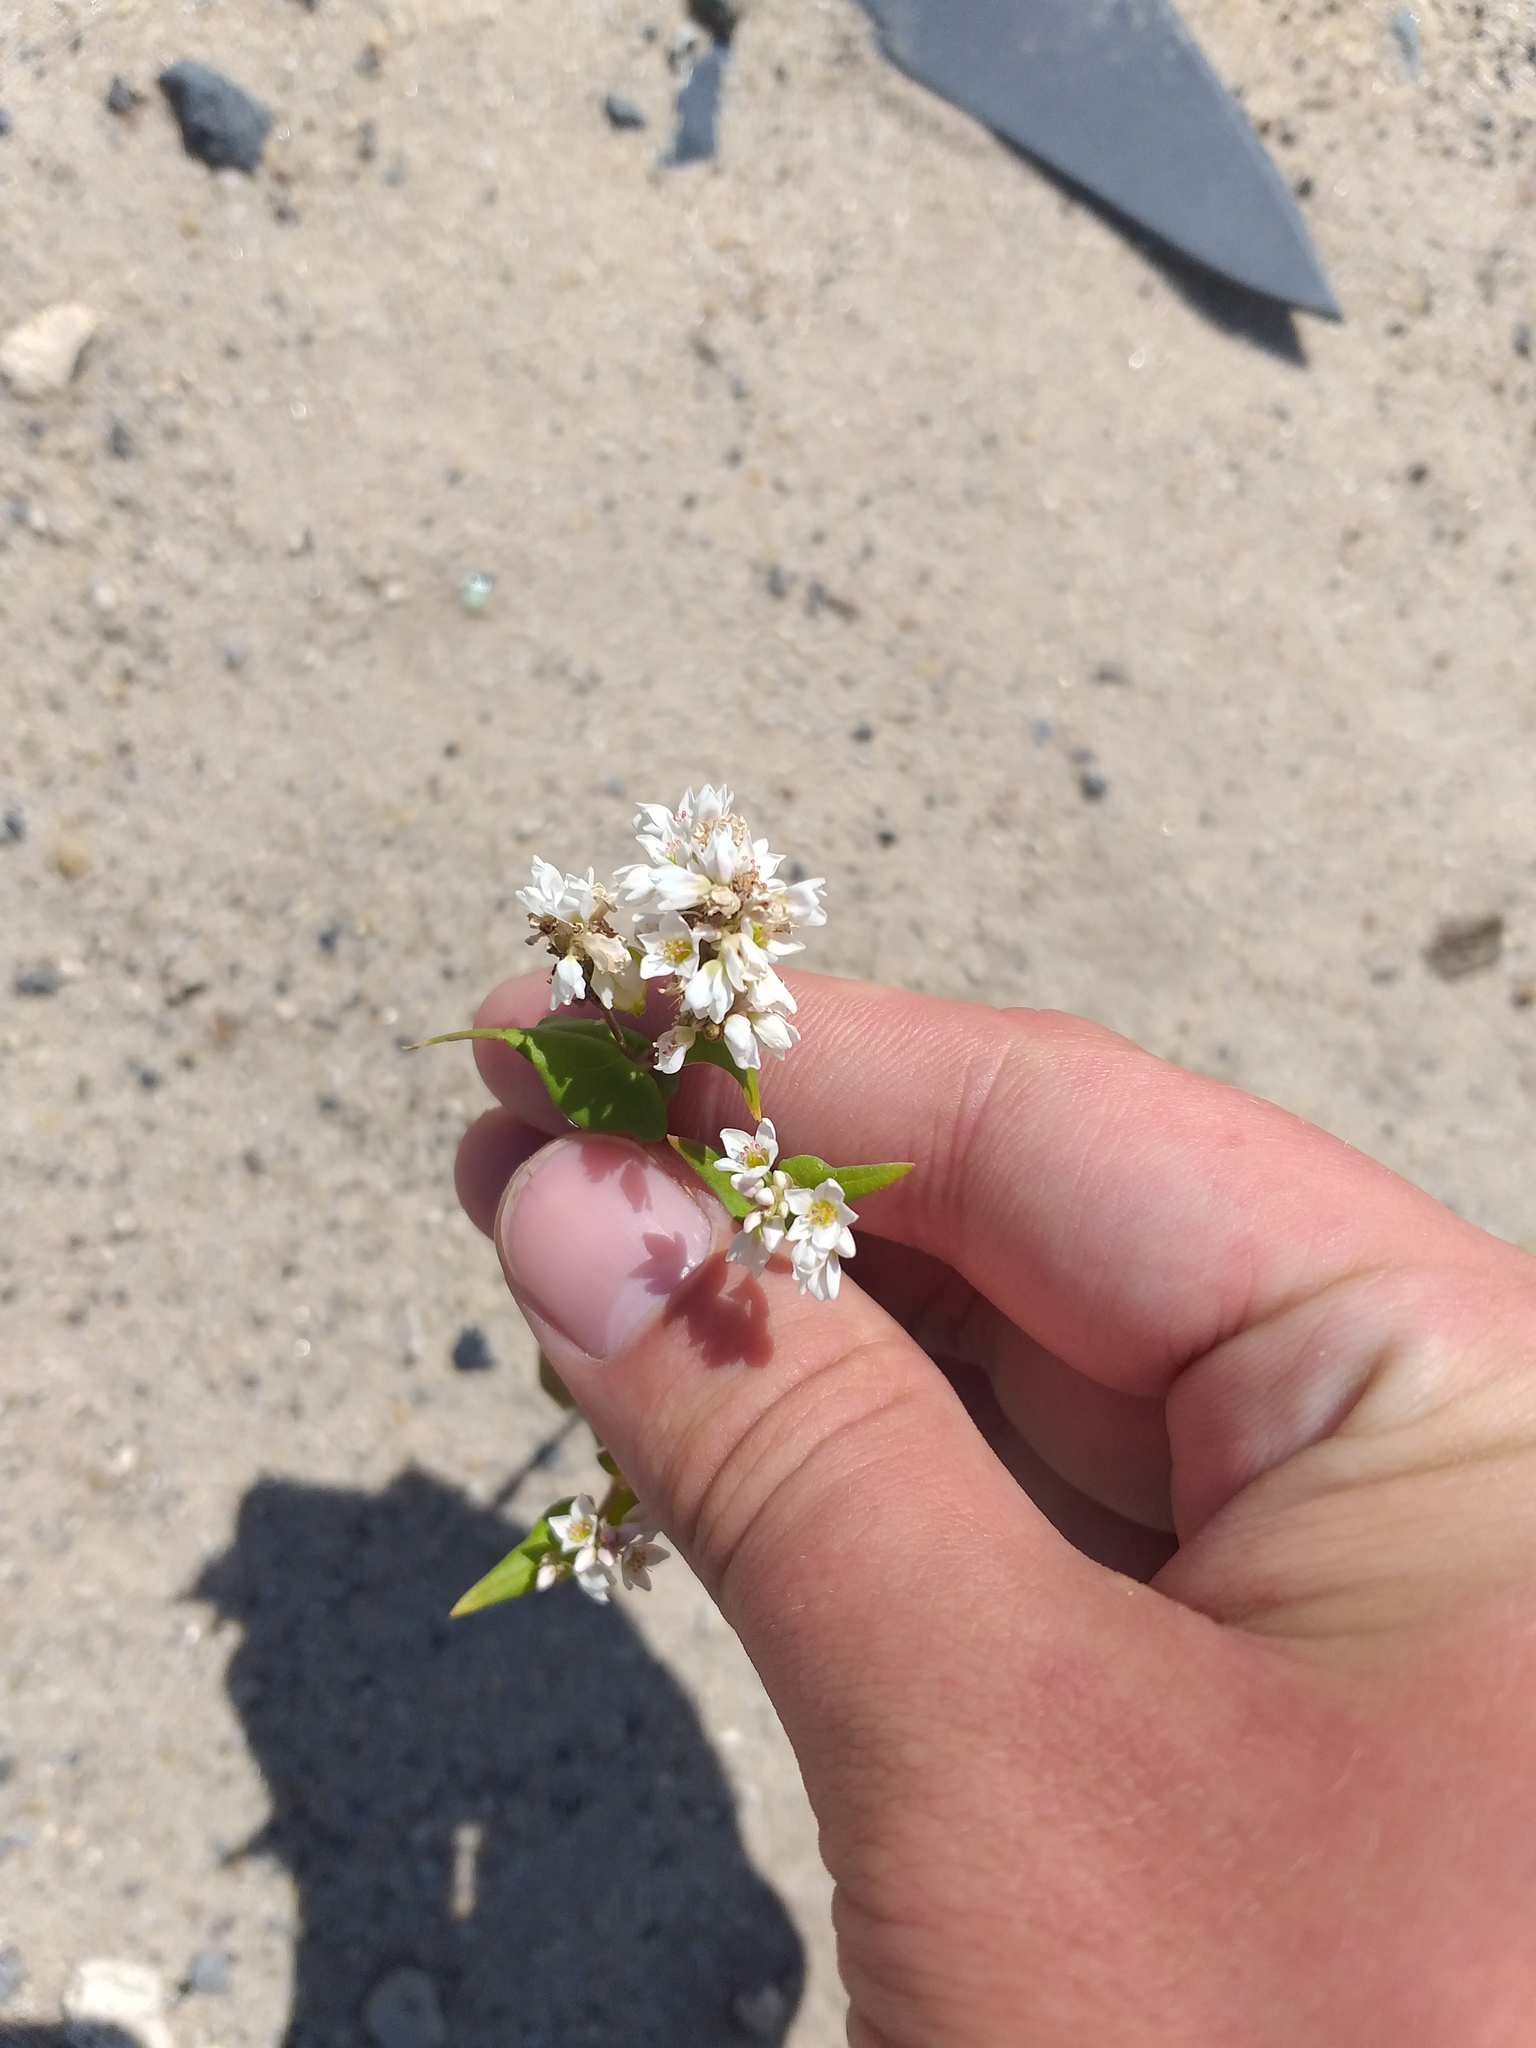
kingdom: Plantae
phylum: Tracheophyta
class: Magnoliopsida
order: Caryophyllales
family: Polygonaceae
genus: Fagopyrum
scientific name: Fagopyrum esculentum
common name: Buckwheat
